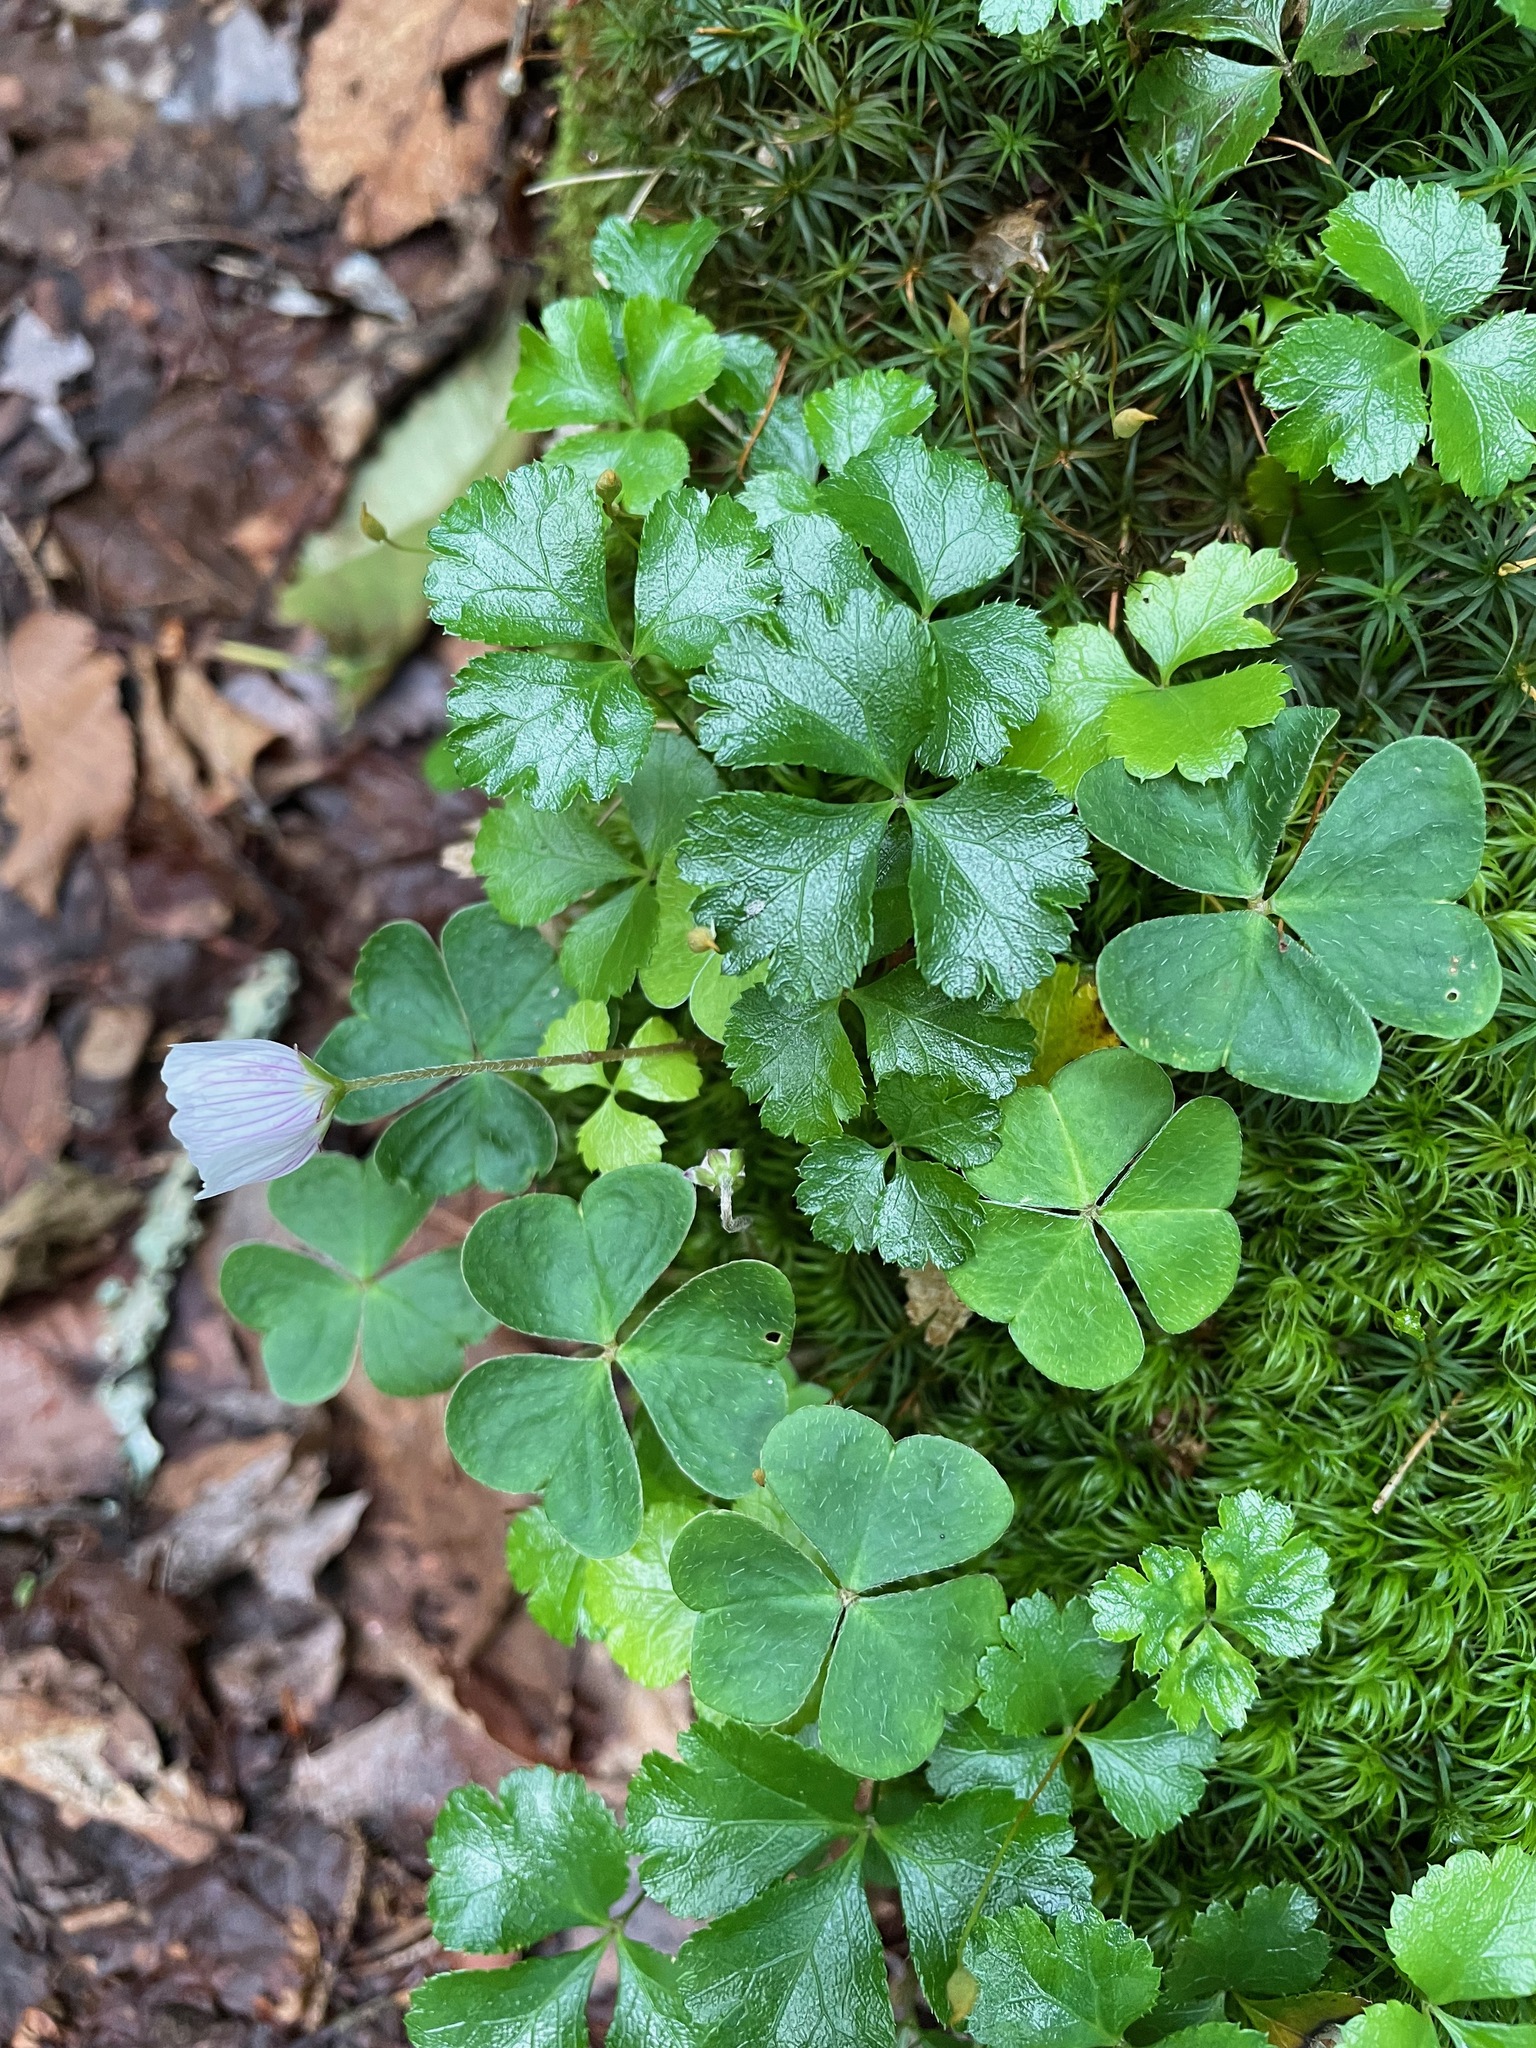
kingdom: Plantae
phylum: Tracheophyta
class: Magnoliopsida
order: Oxalidales
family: Oxalidaceae
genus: Oxalis
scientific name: Oxalis montana
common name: American wood-sorrel
